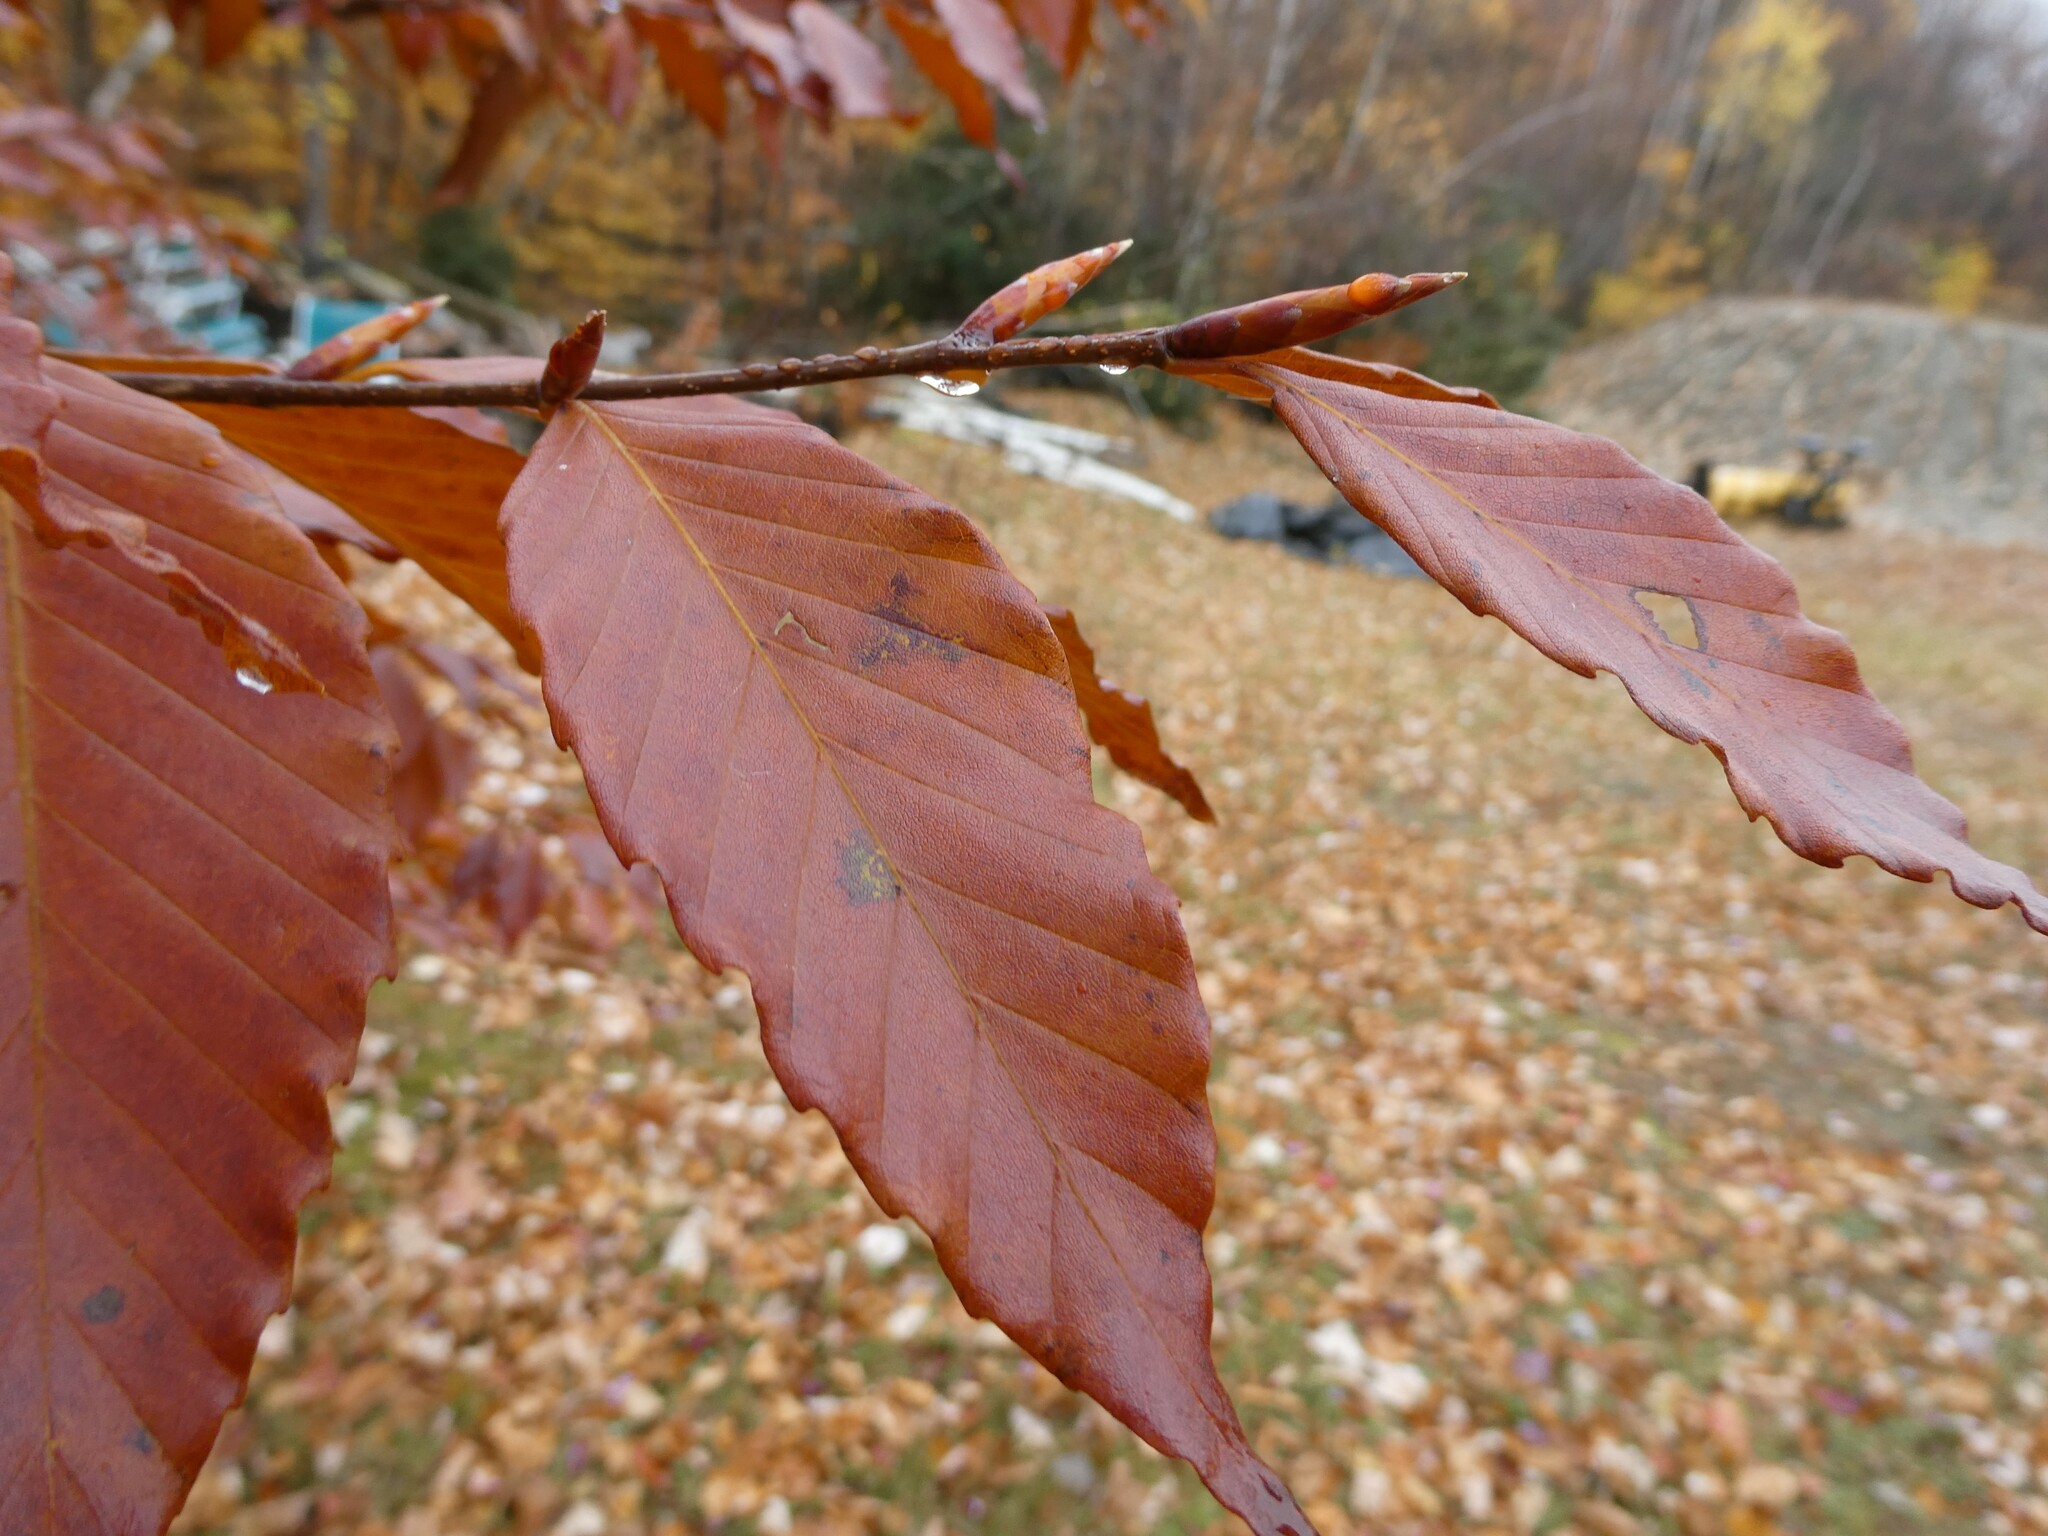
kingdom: Plantae
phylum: Tracheophyta
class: Magnoliopsida
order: Fagales
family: Fagaceae
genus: Fagus
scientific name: Fagus grandifolia
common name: American beech
